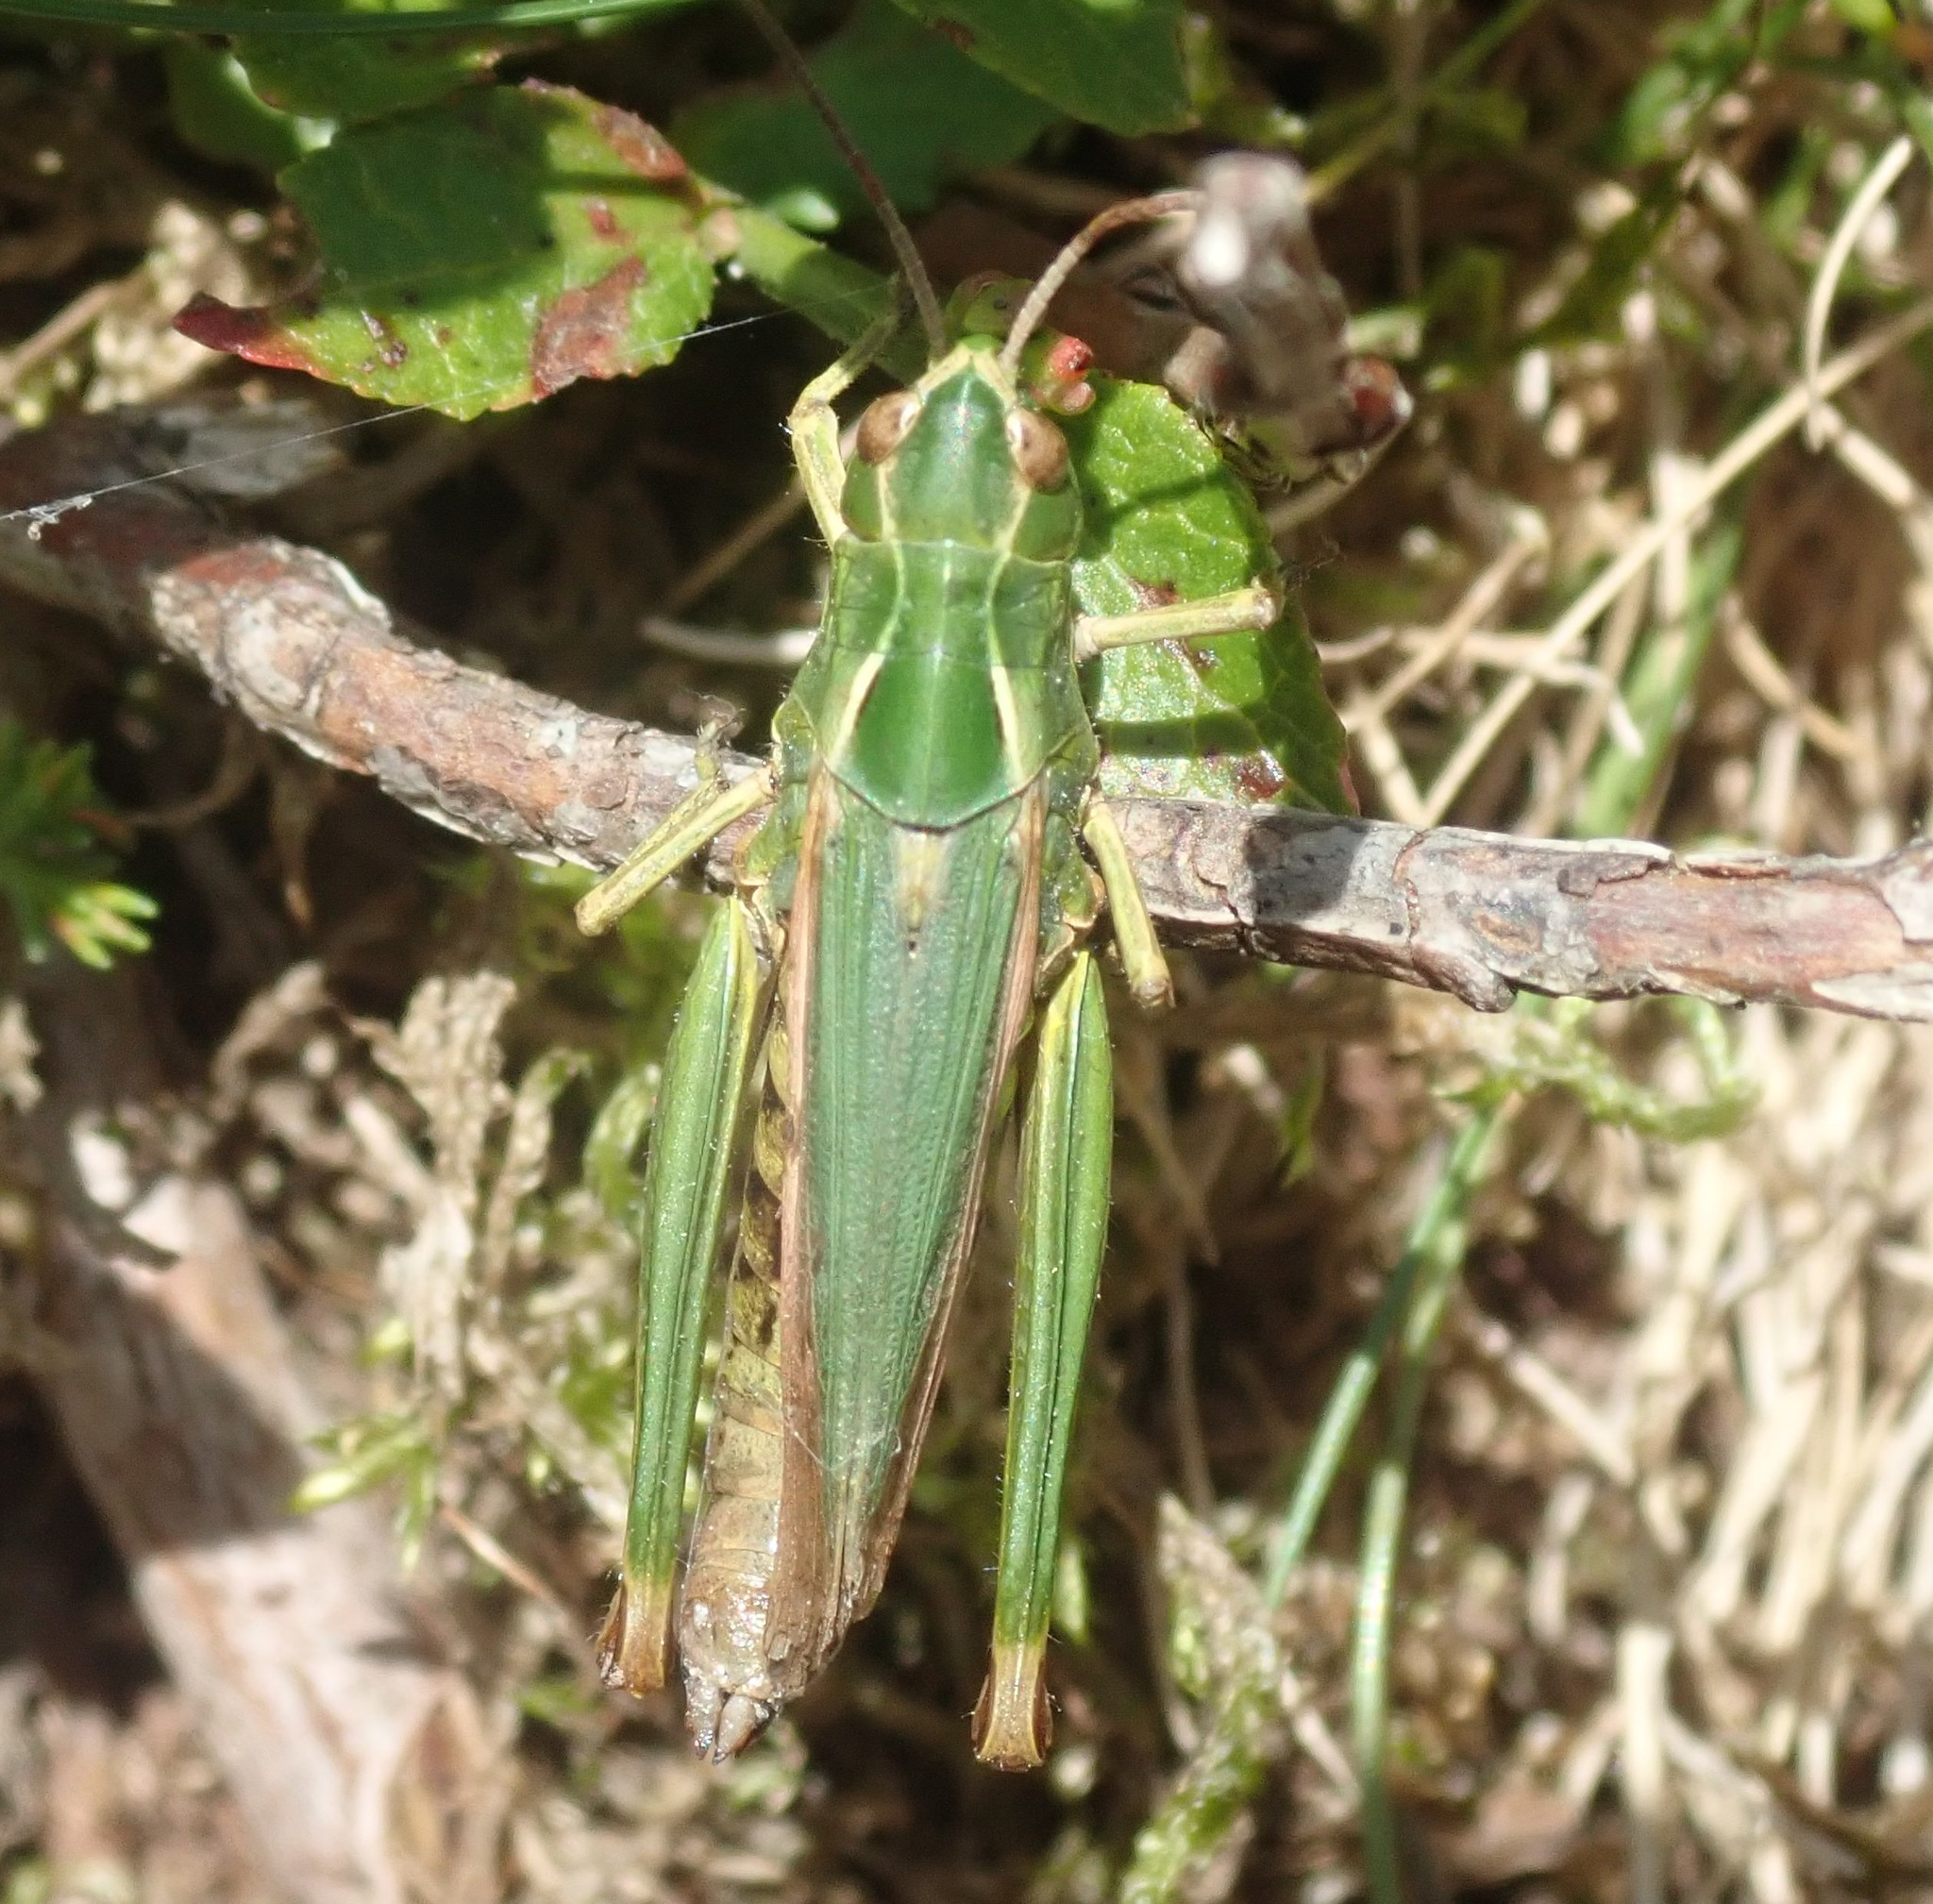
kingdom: Animalia
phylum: Arthropoda
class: Insecta
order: Orthoptera
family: Acrididae
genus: Omocestus
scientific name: Omocestus viridulus
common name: Common green grasshopper
